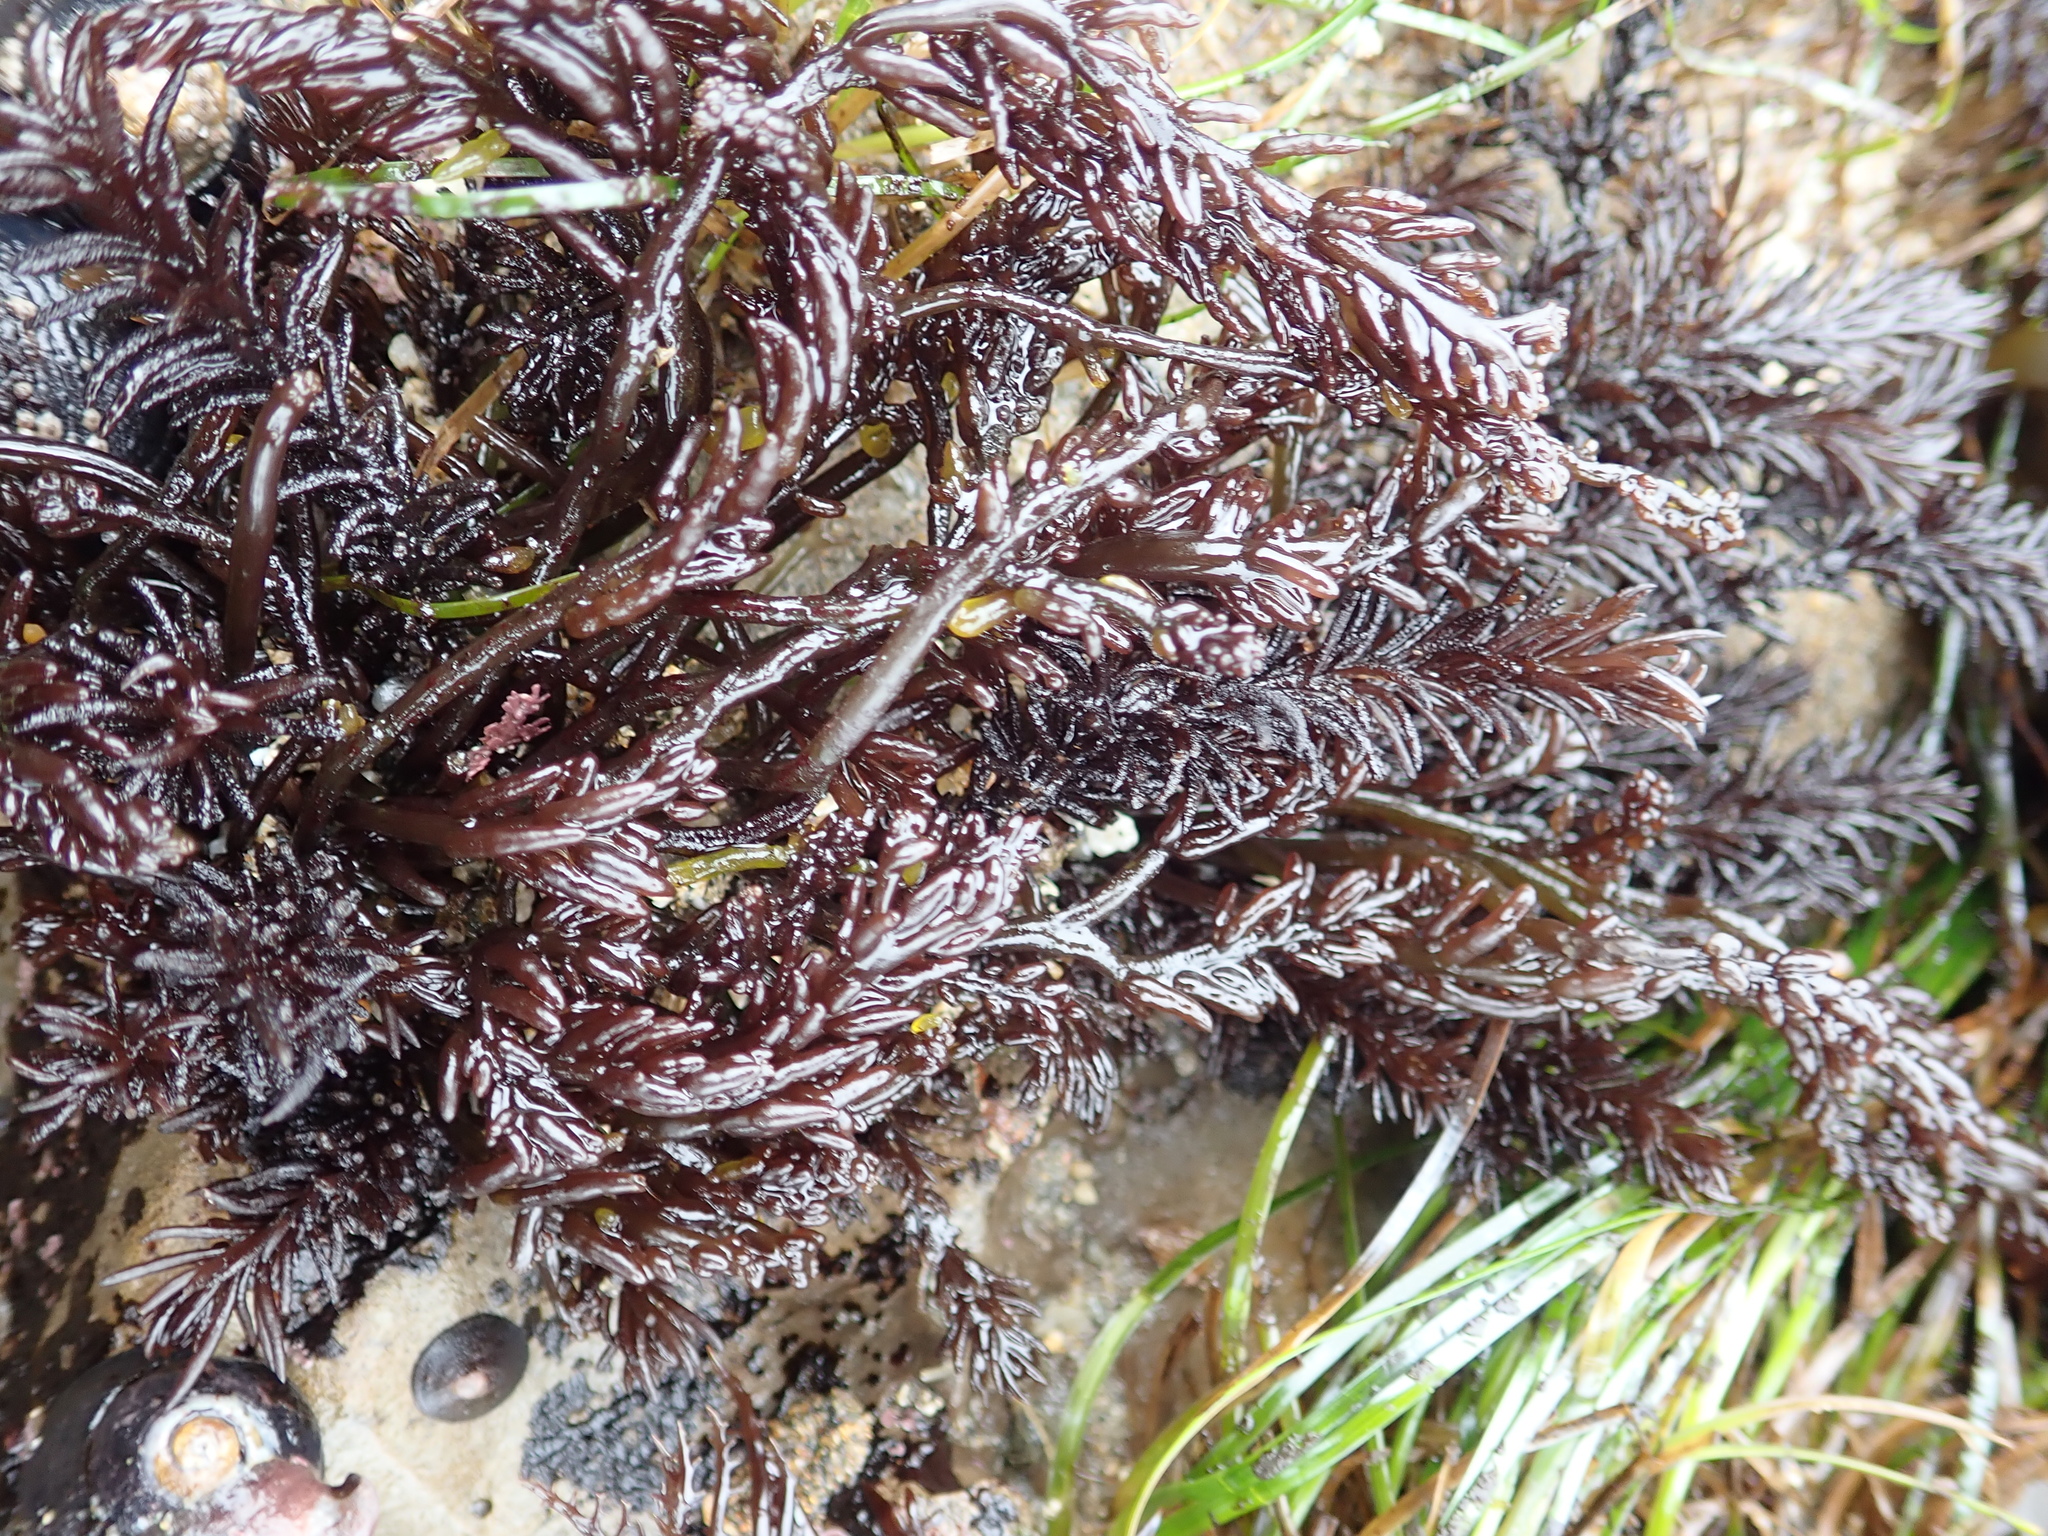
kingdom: Plantae
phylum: Rhodophyta
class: Florideophyceae
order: Rhodymeniales
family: Champiaceae
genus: Neogastroclonium
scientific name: Neogastroclonium subarticulatum
